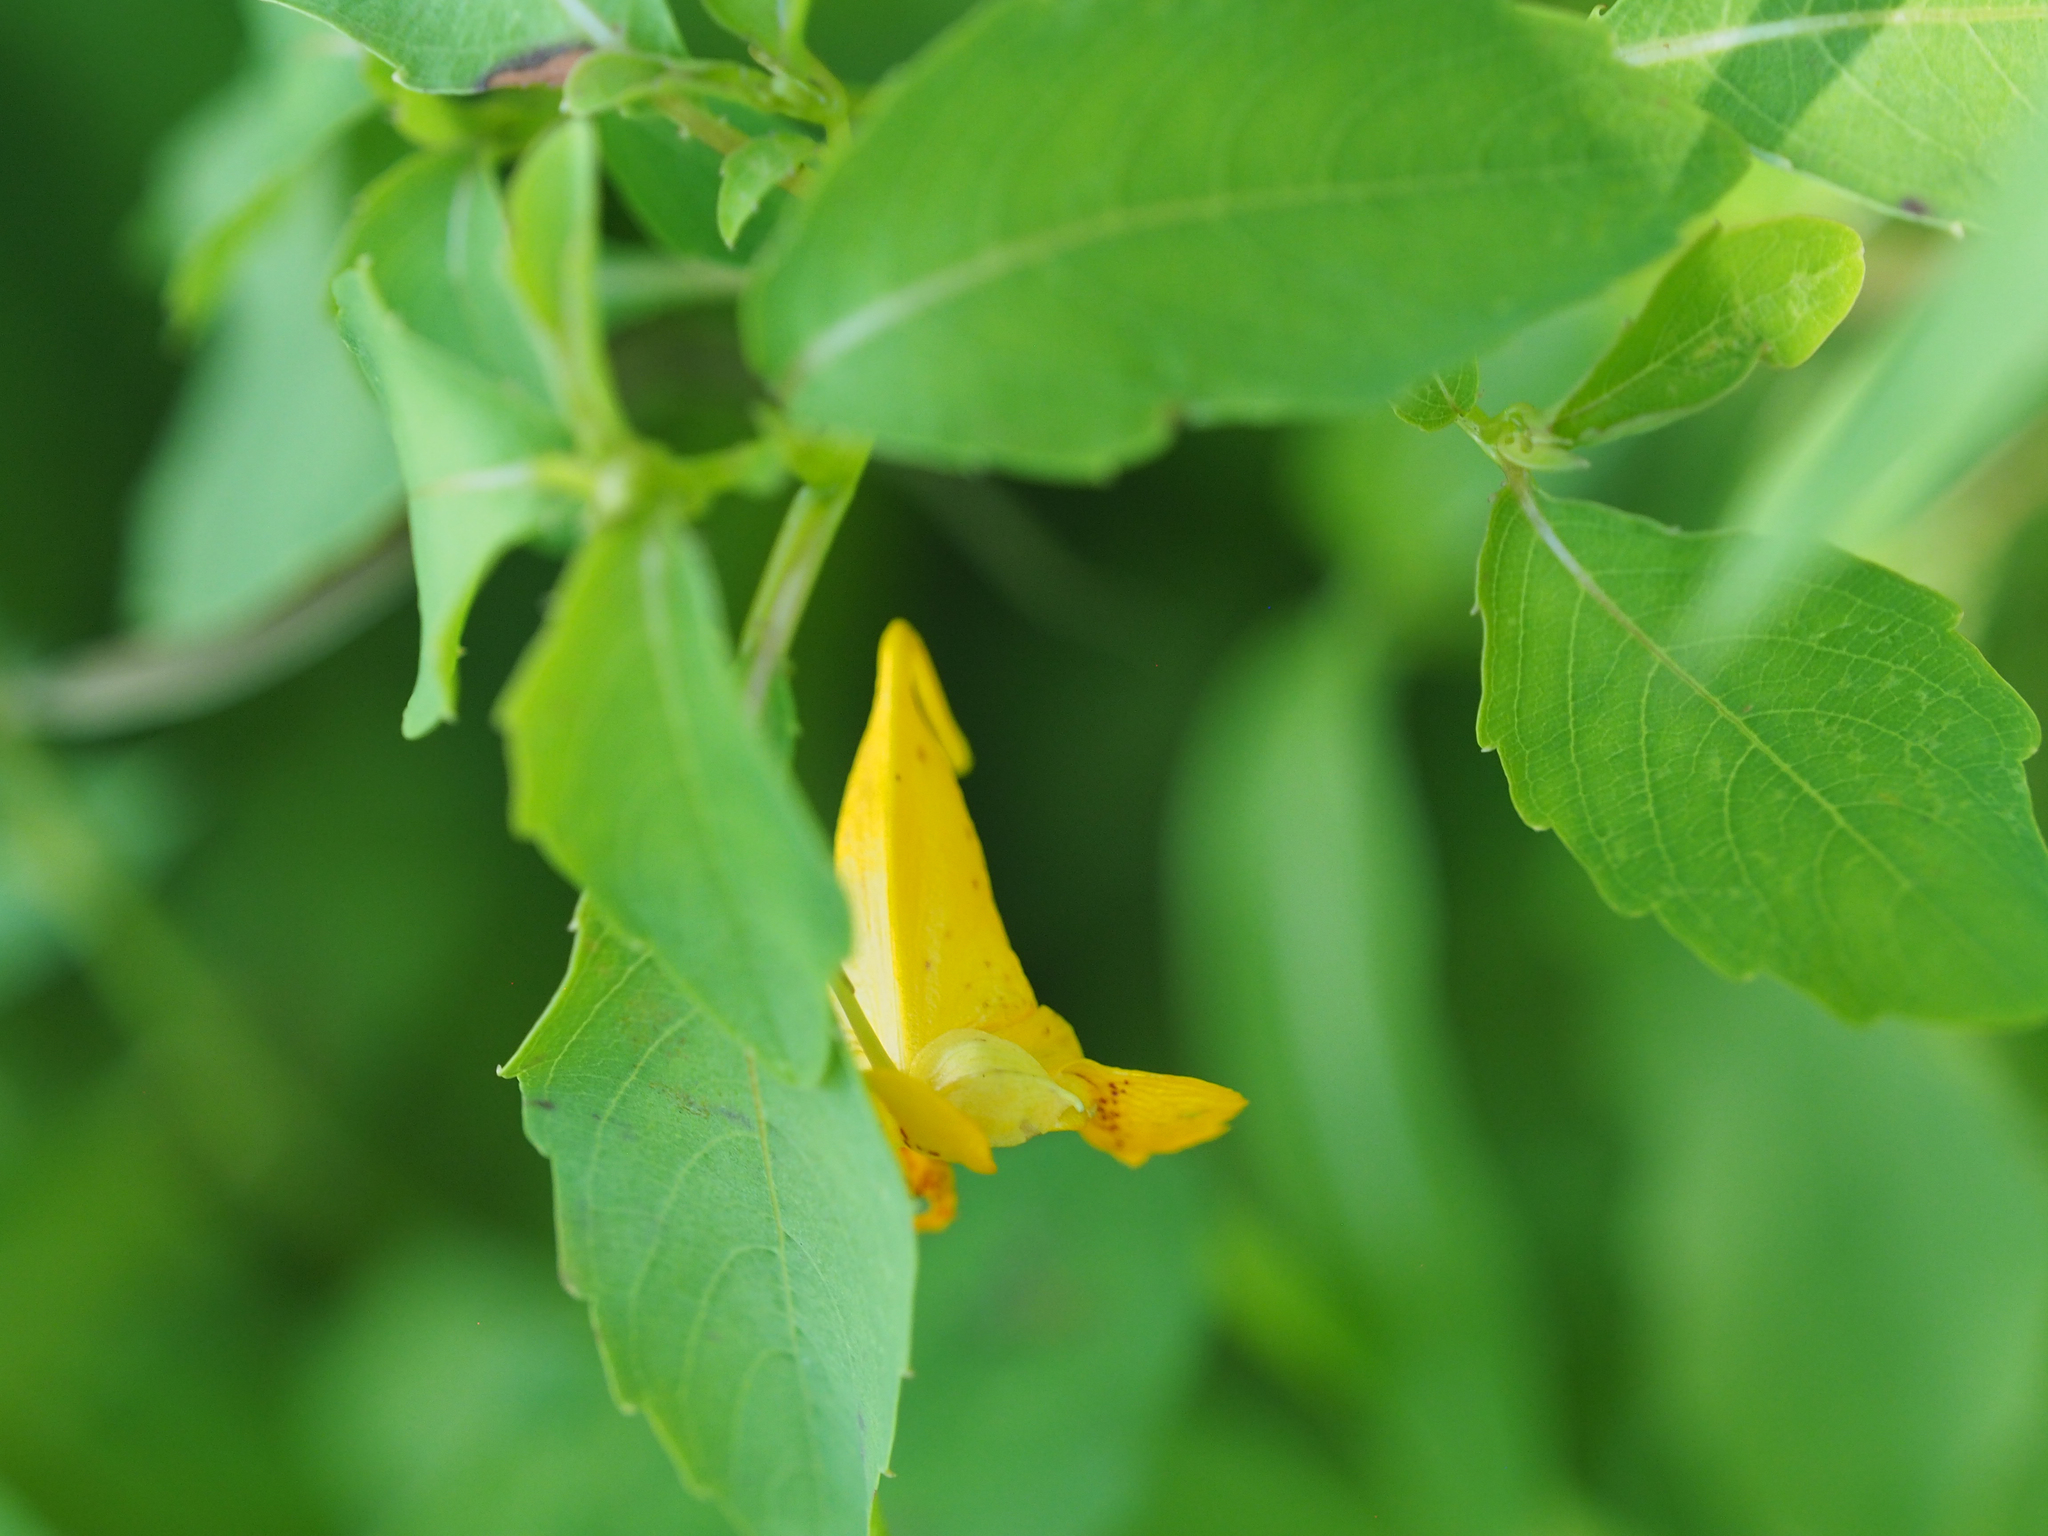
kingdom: Plantae
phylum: Tracheophyta
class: Magnoliopsida
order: Ericales
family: Balsaminaceae
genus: Impatiens
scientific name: Impatiens capensis
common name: Orange balsam
